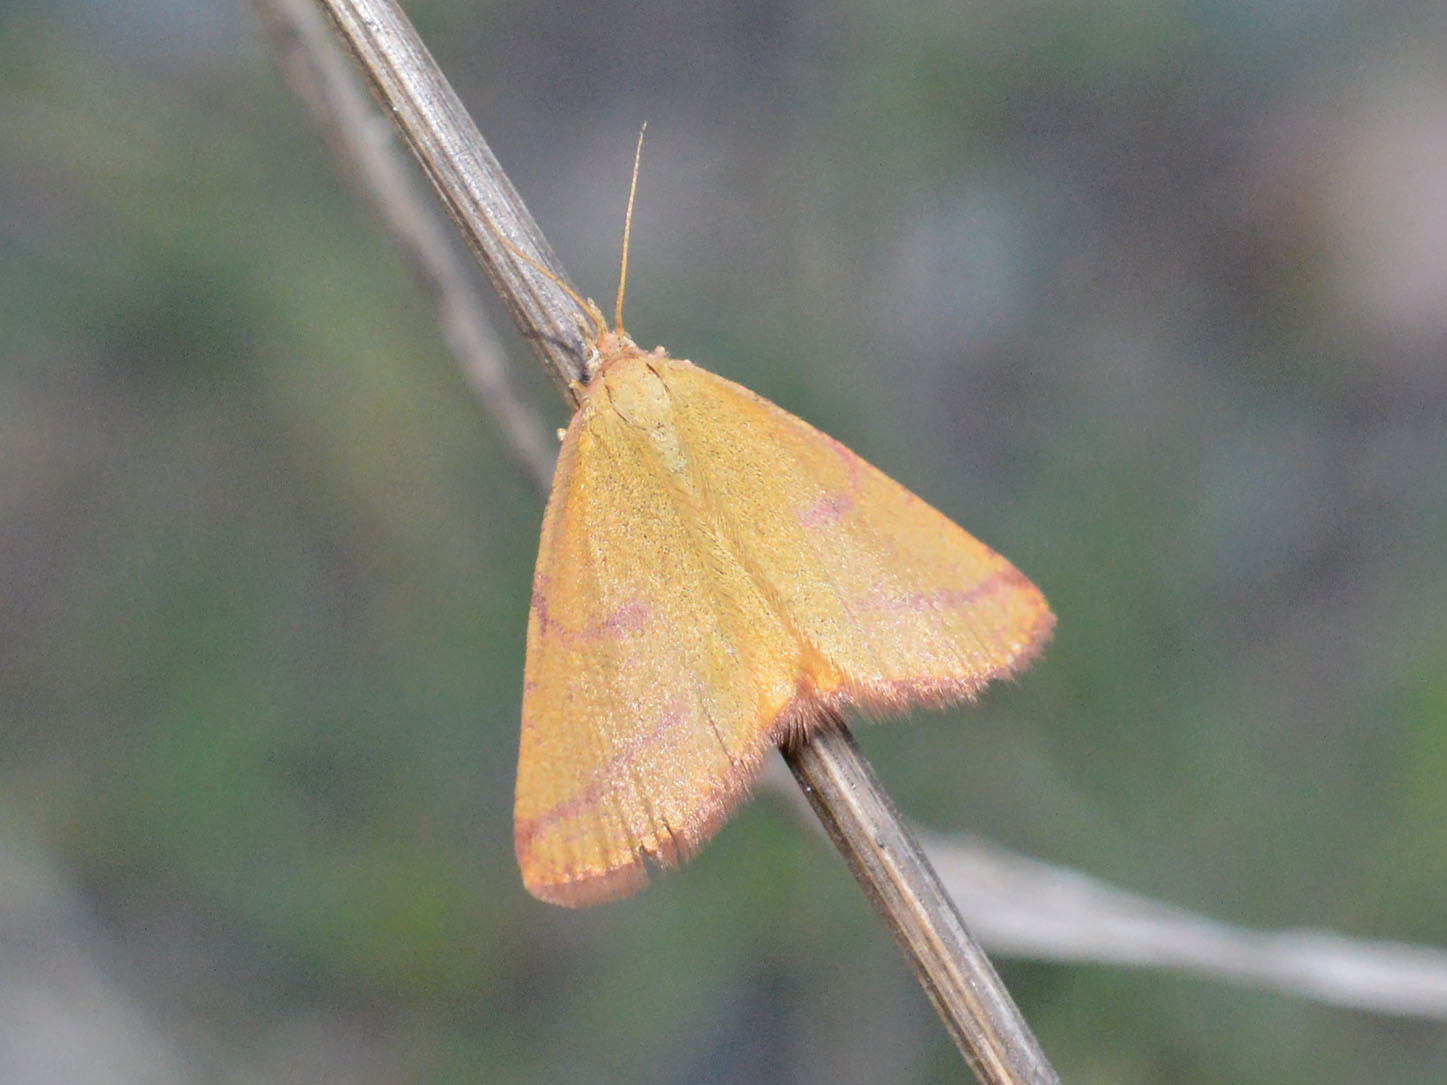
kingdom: Animalia
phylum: Arthropoda
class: Insecta
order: Lepidoptera
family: Geometridae
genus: Lythria
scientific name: Lythria purpuraria
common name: Purple-barred yellow
